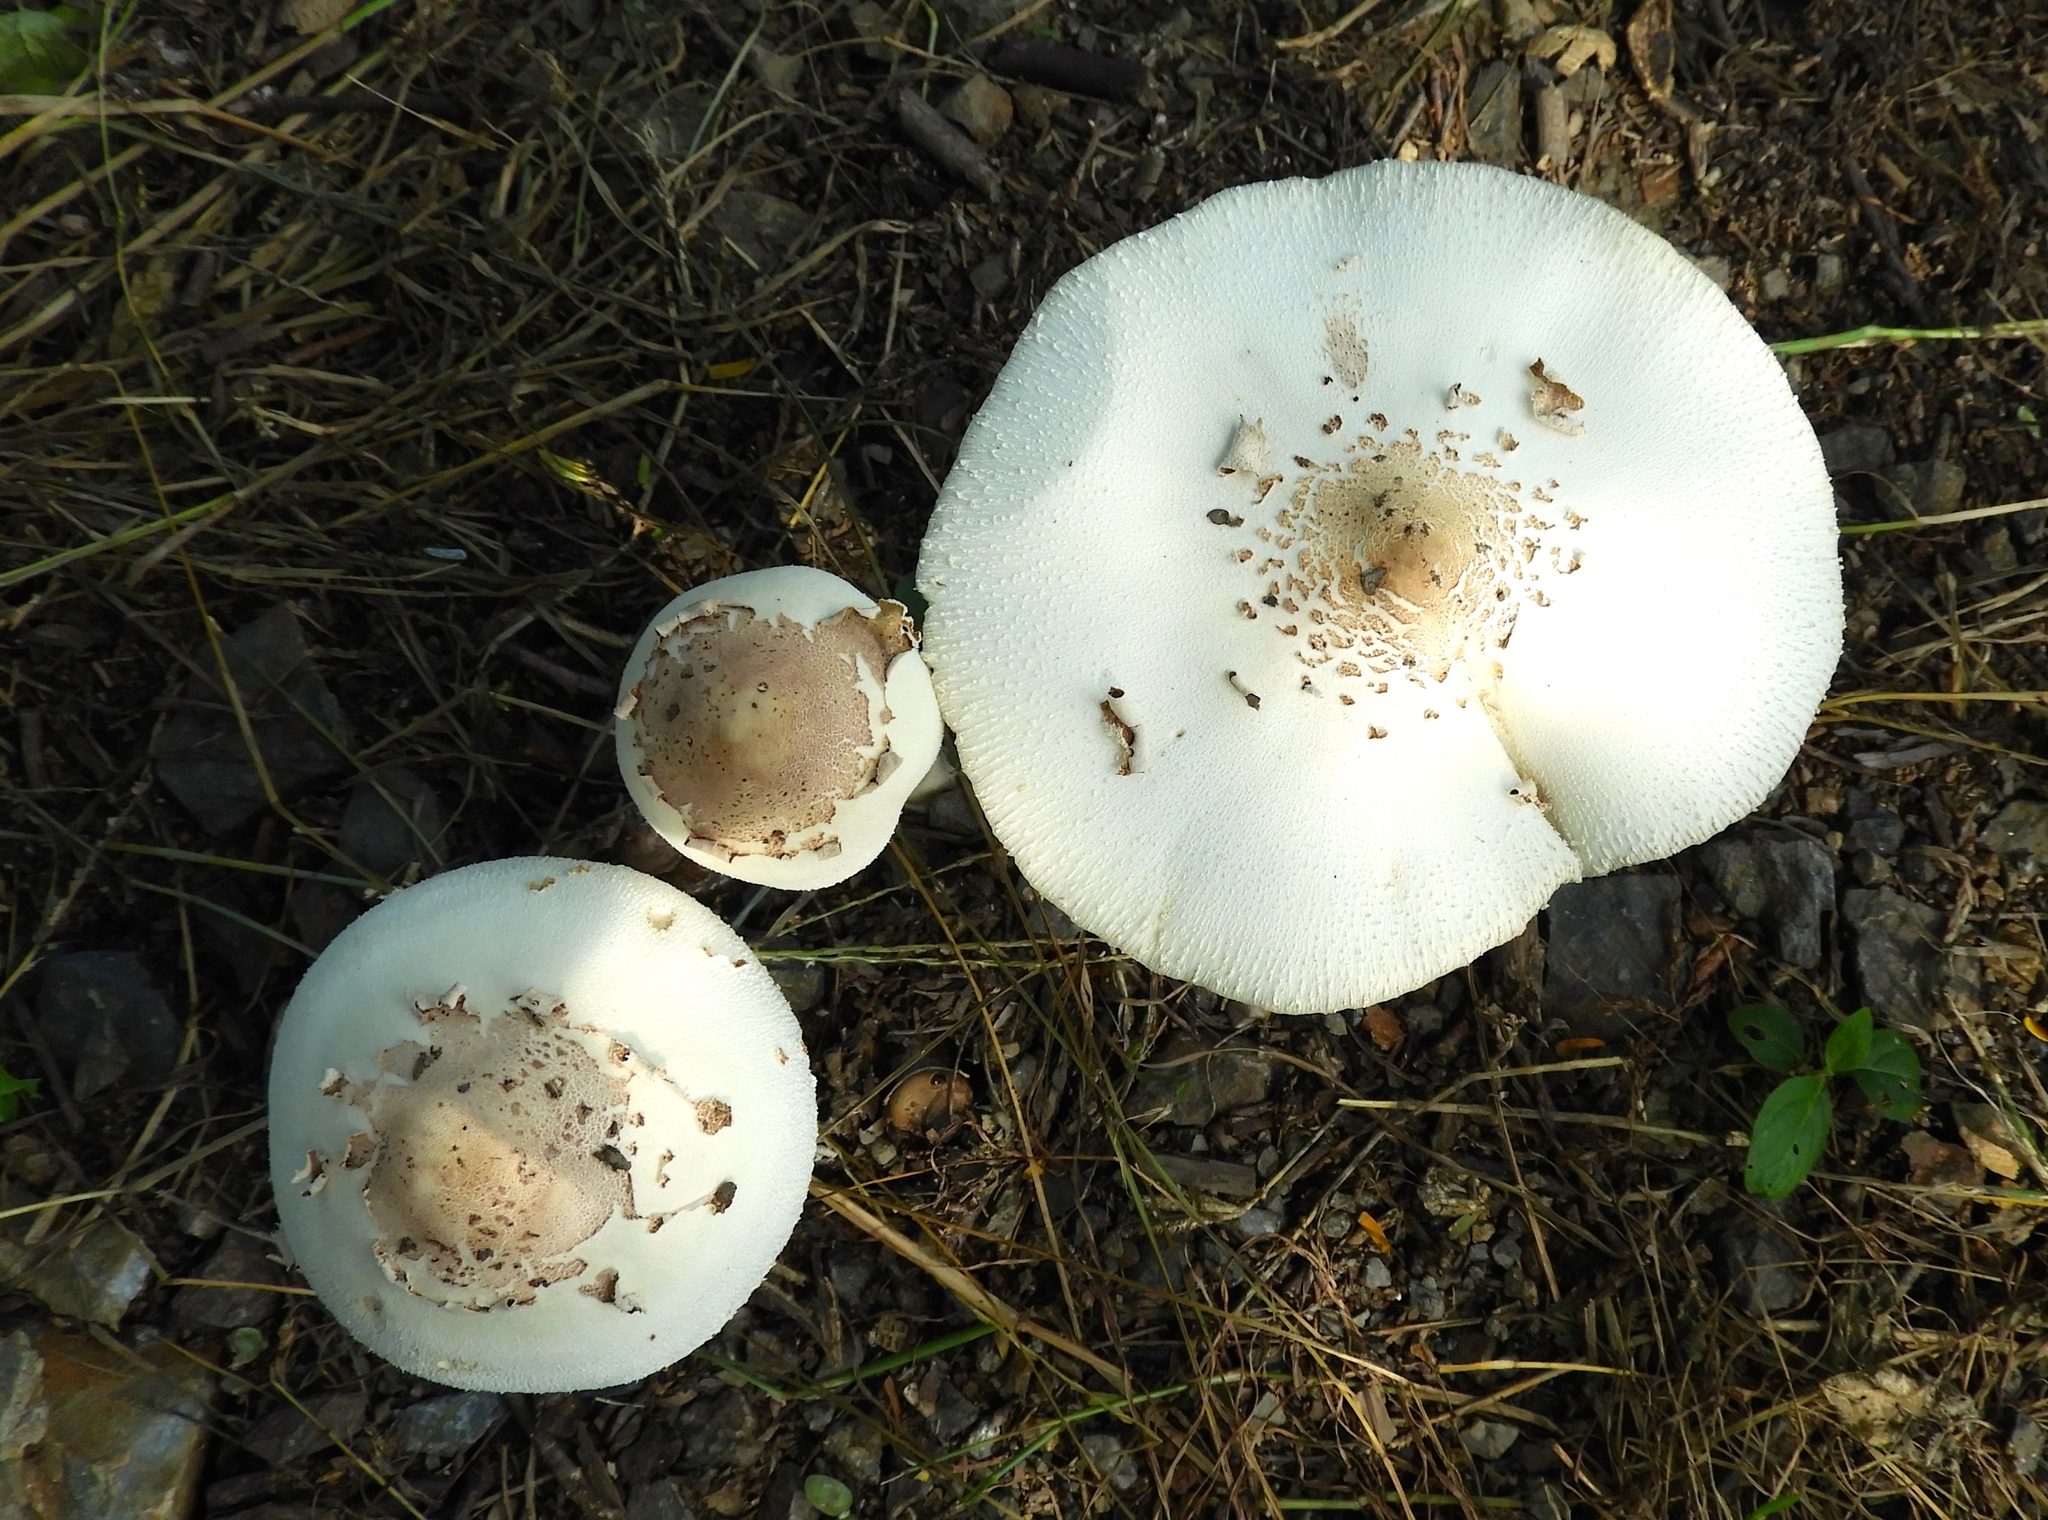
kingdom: Fungi
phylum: Basidiomycota
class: Agaricomycetes
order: Agaricales
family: Agaricaceae
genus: Chlorophyllum
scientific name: Chlorophyllum molybdites
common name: False parasol
